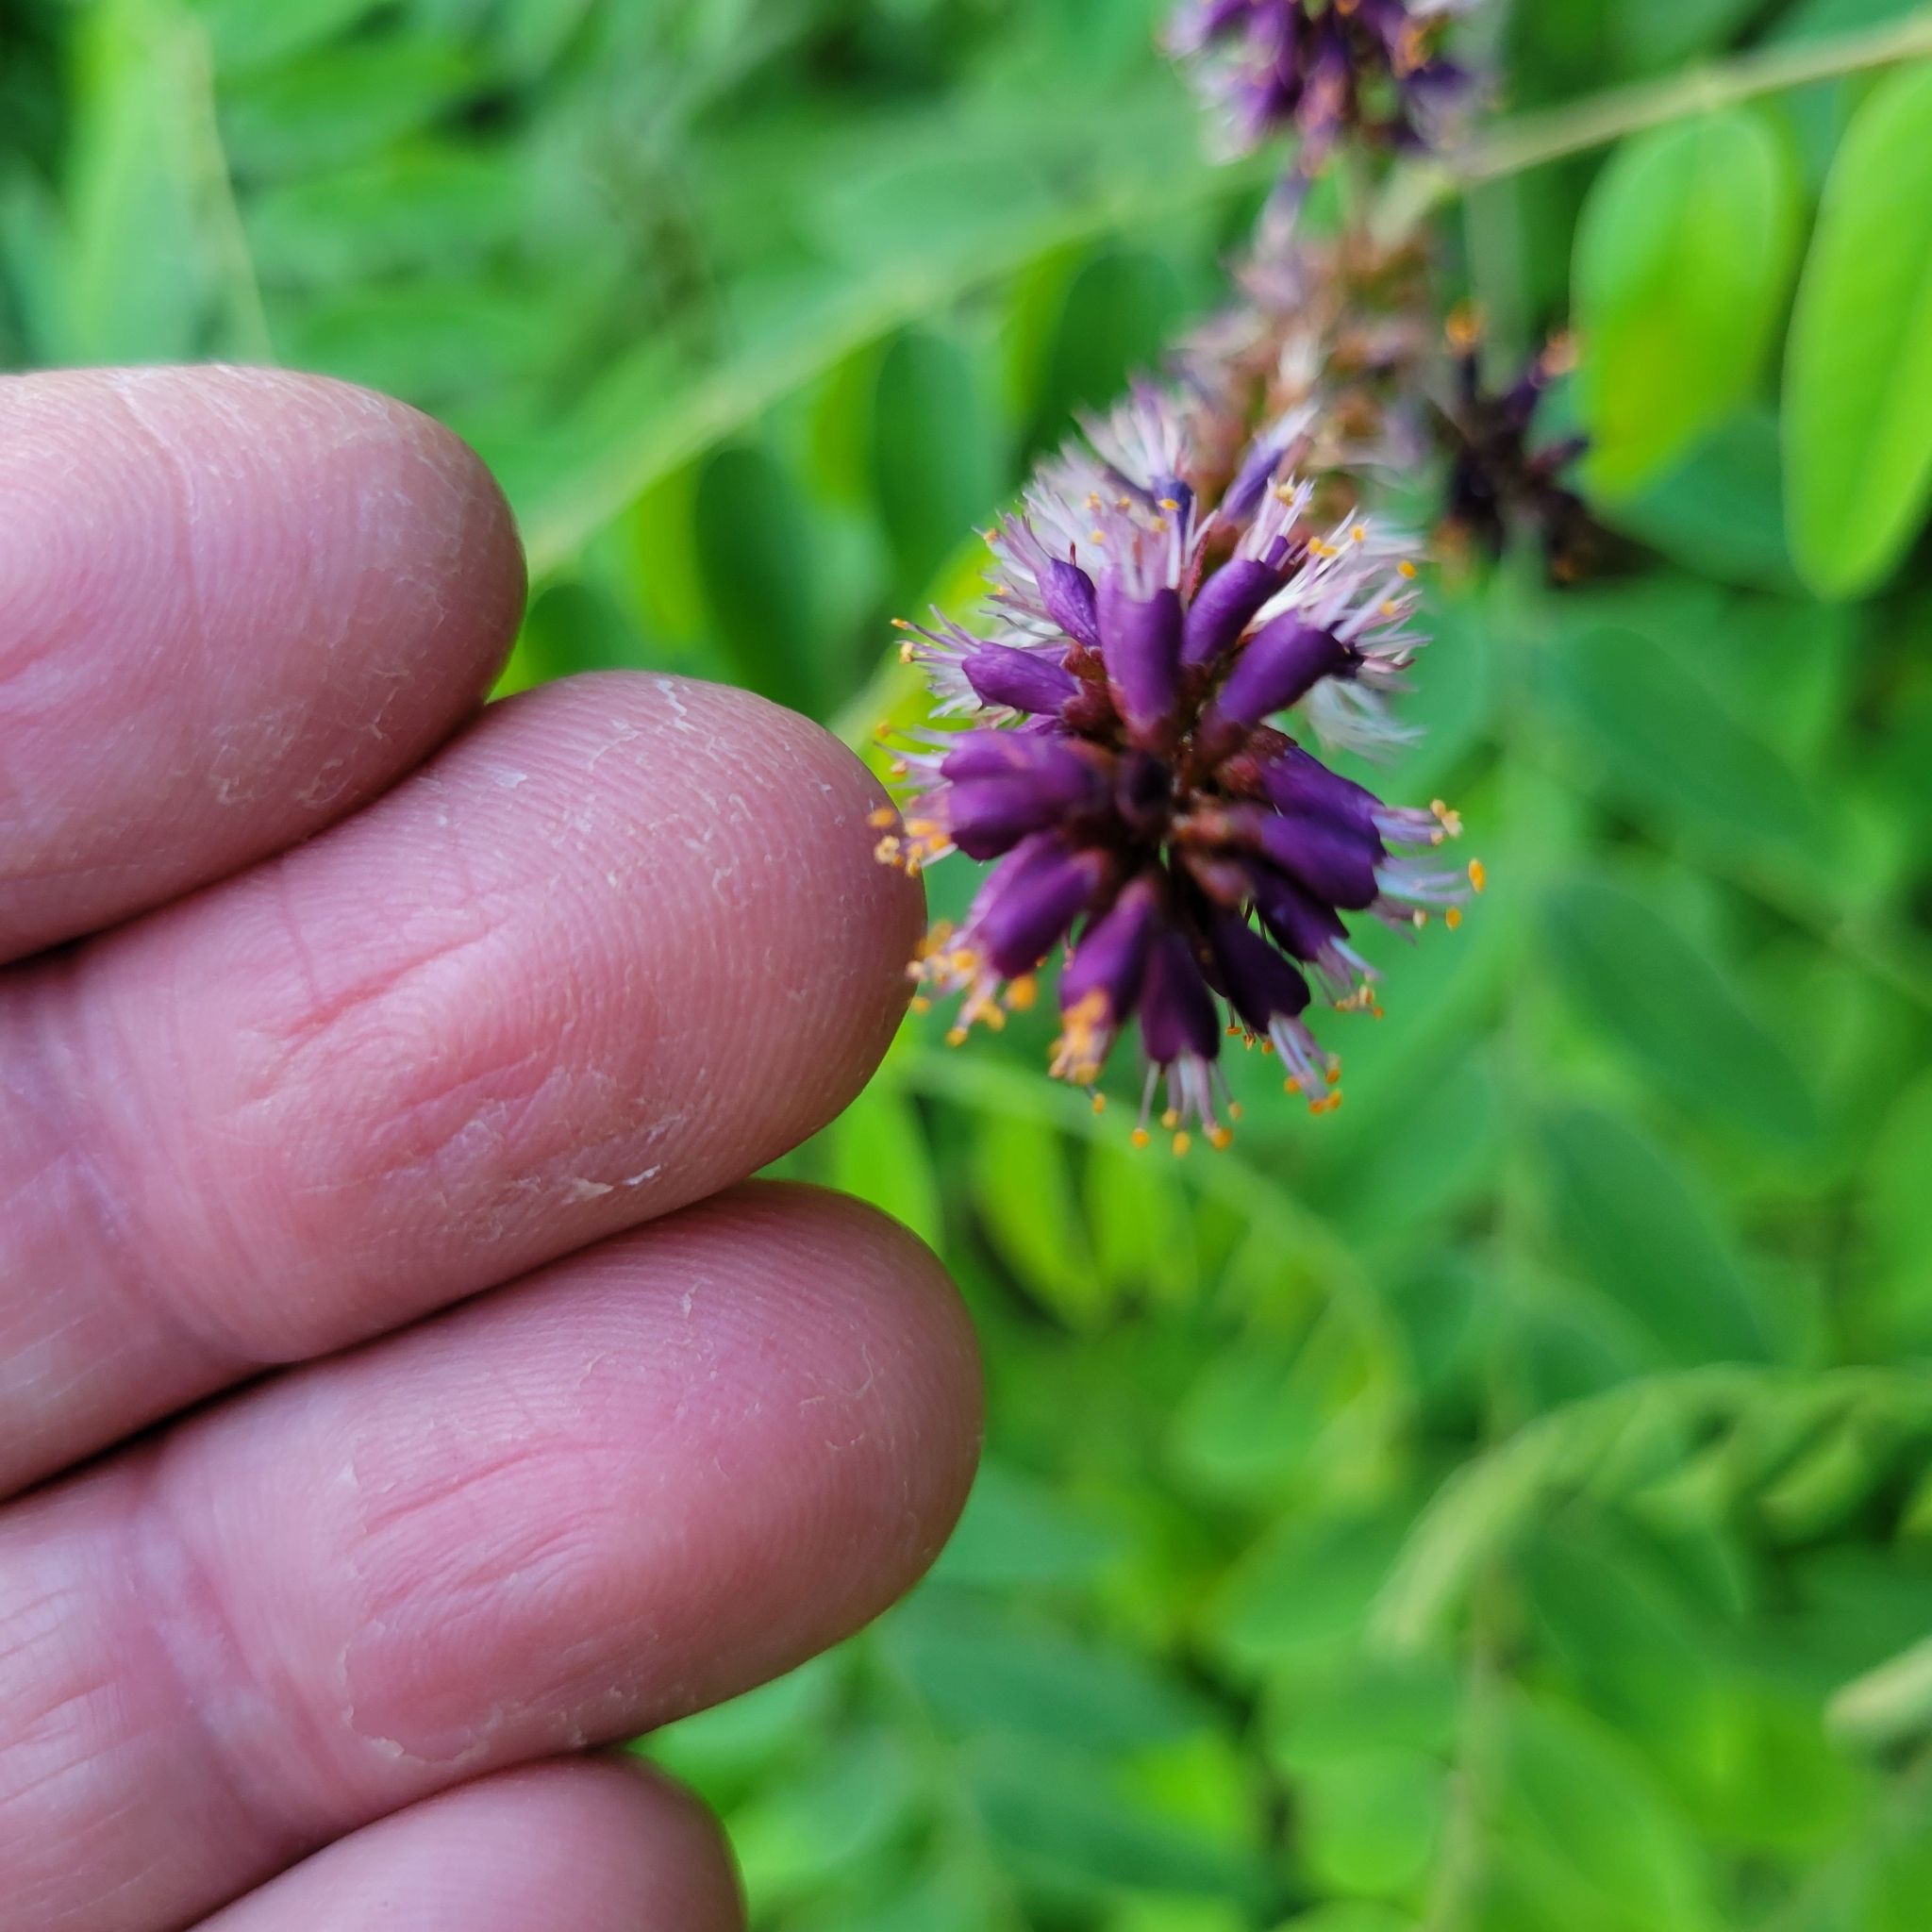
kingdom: Plantae
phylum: Tracheophyta
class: Magnoliopsida
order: Fabales
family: Fabaceae
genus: Amorpha
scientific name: Amorpha fruticosa
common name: False indigo
